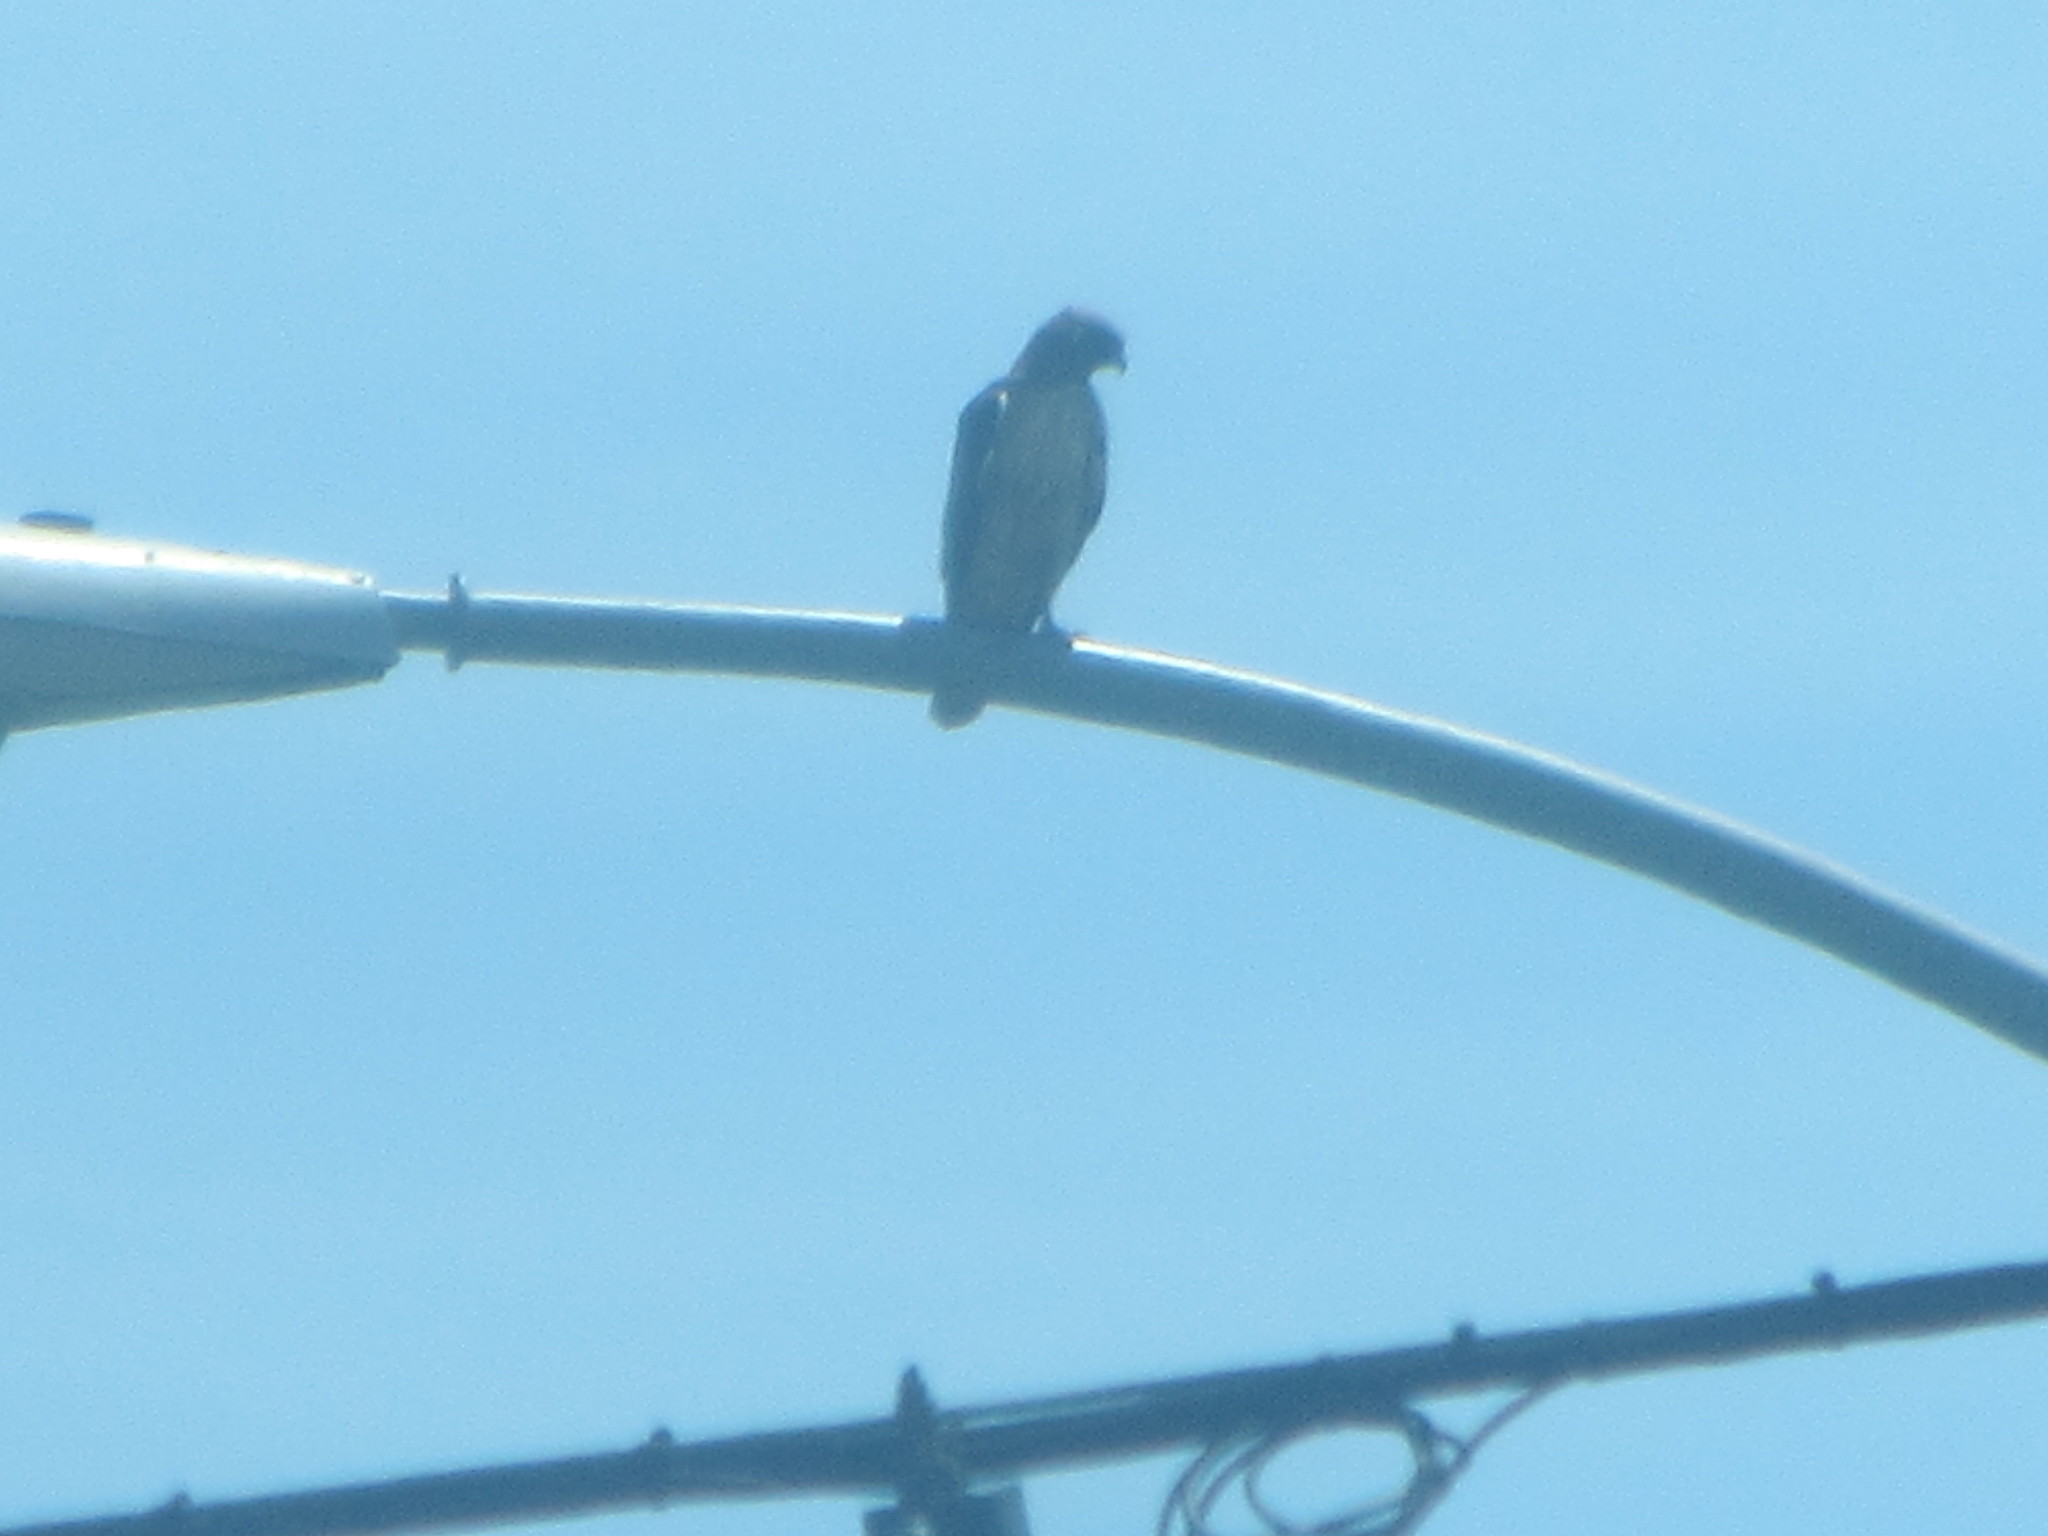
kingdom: Animalia
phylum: Chordata
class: Aves
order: Accipitriformes
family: Accipitridae
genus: Buteo
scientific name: Buteo jamaicensis
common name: Red-tailed hawk
